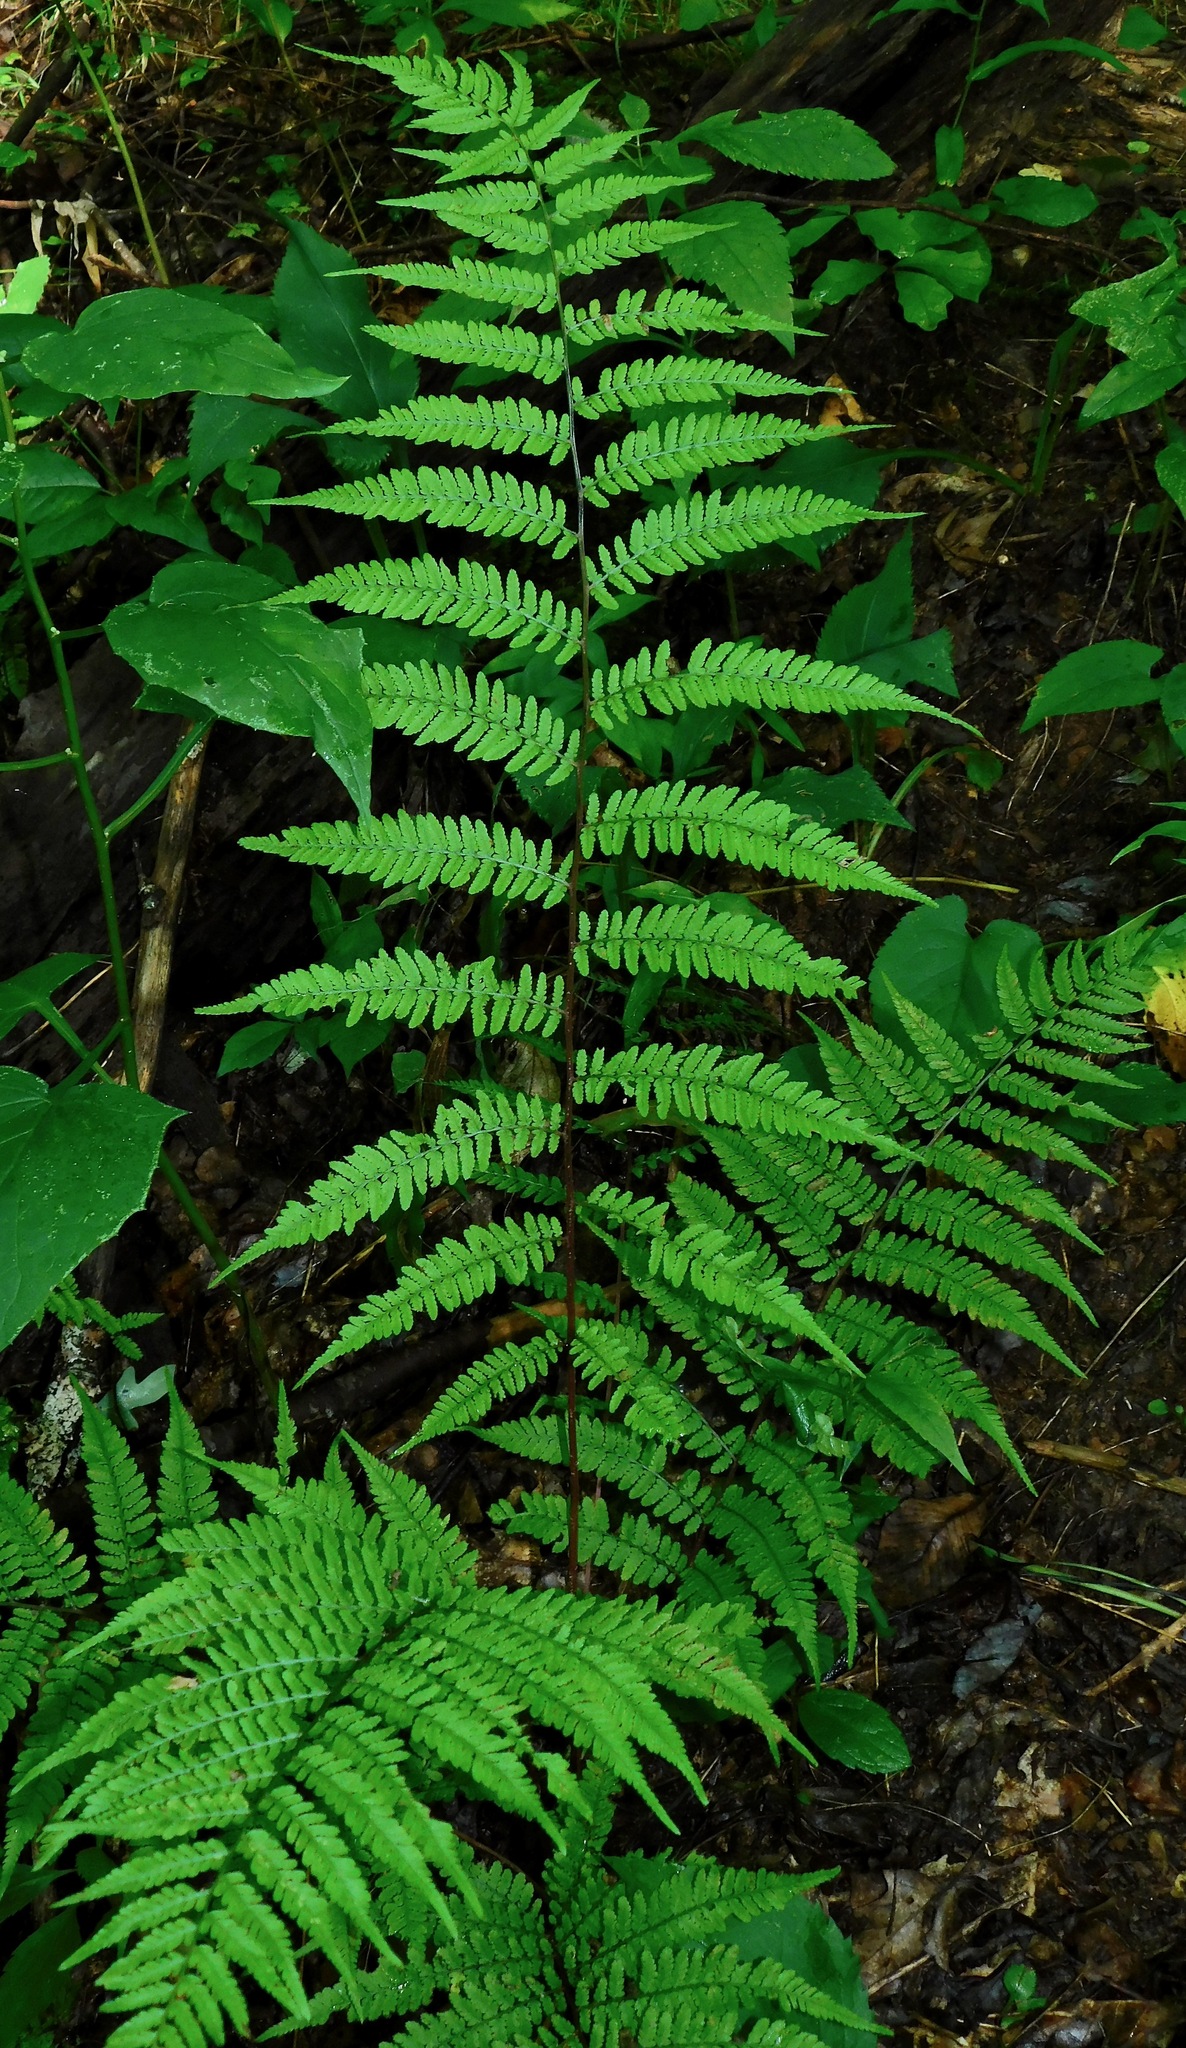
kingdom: Plantae
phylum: Tracheophyta
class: Polypodiopsida
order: Polypodiales
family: Athyriaceae
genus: Athyrium
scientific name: Athyrium asplenioides
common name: Southern lady fern
